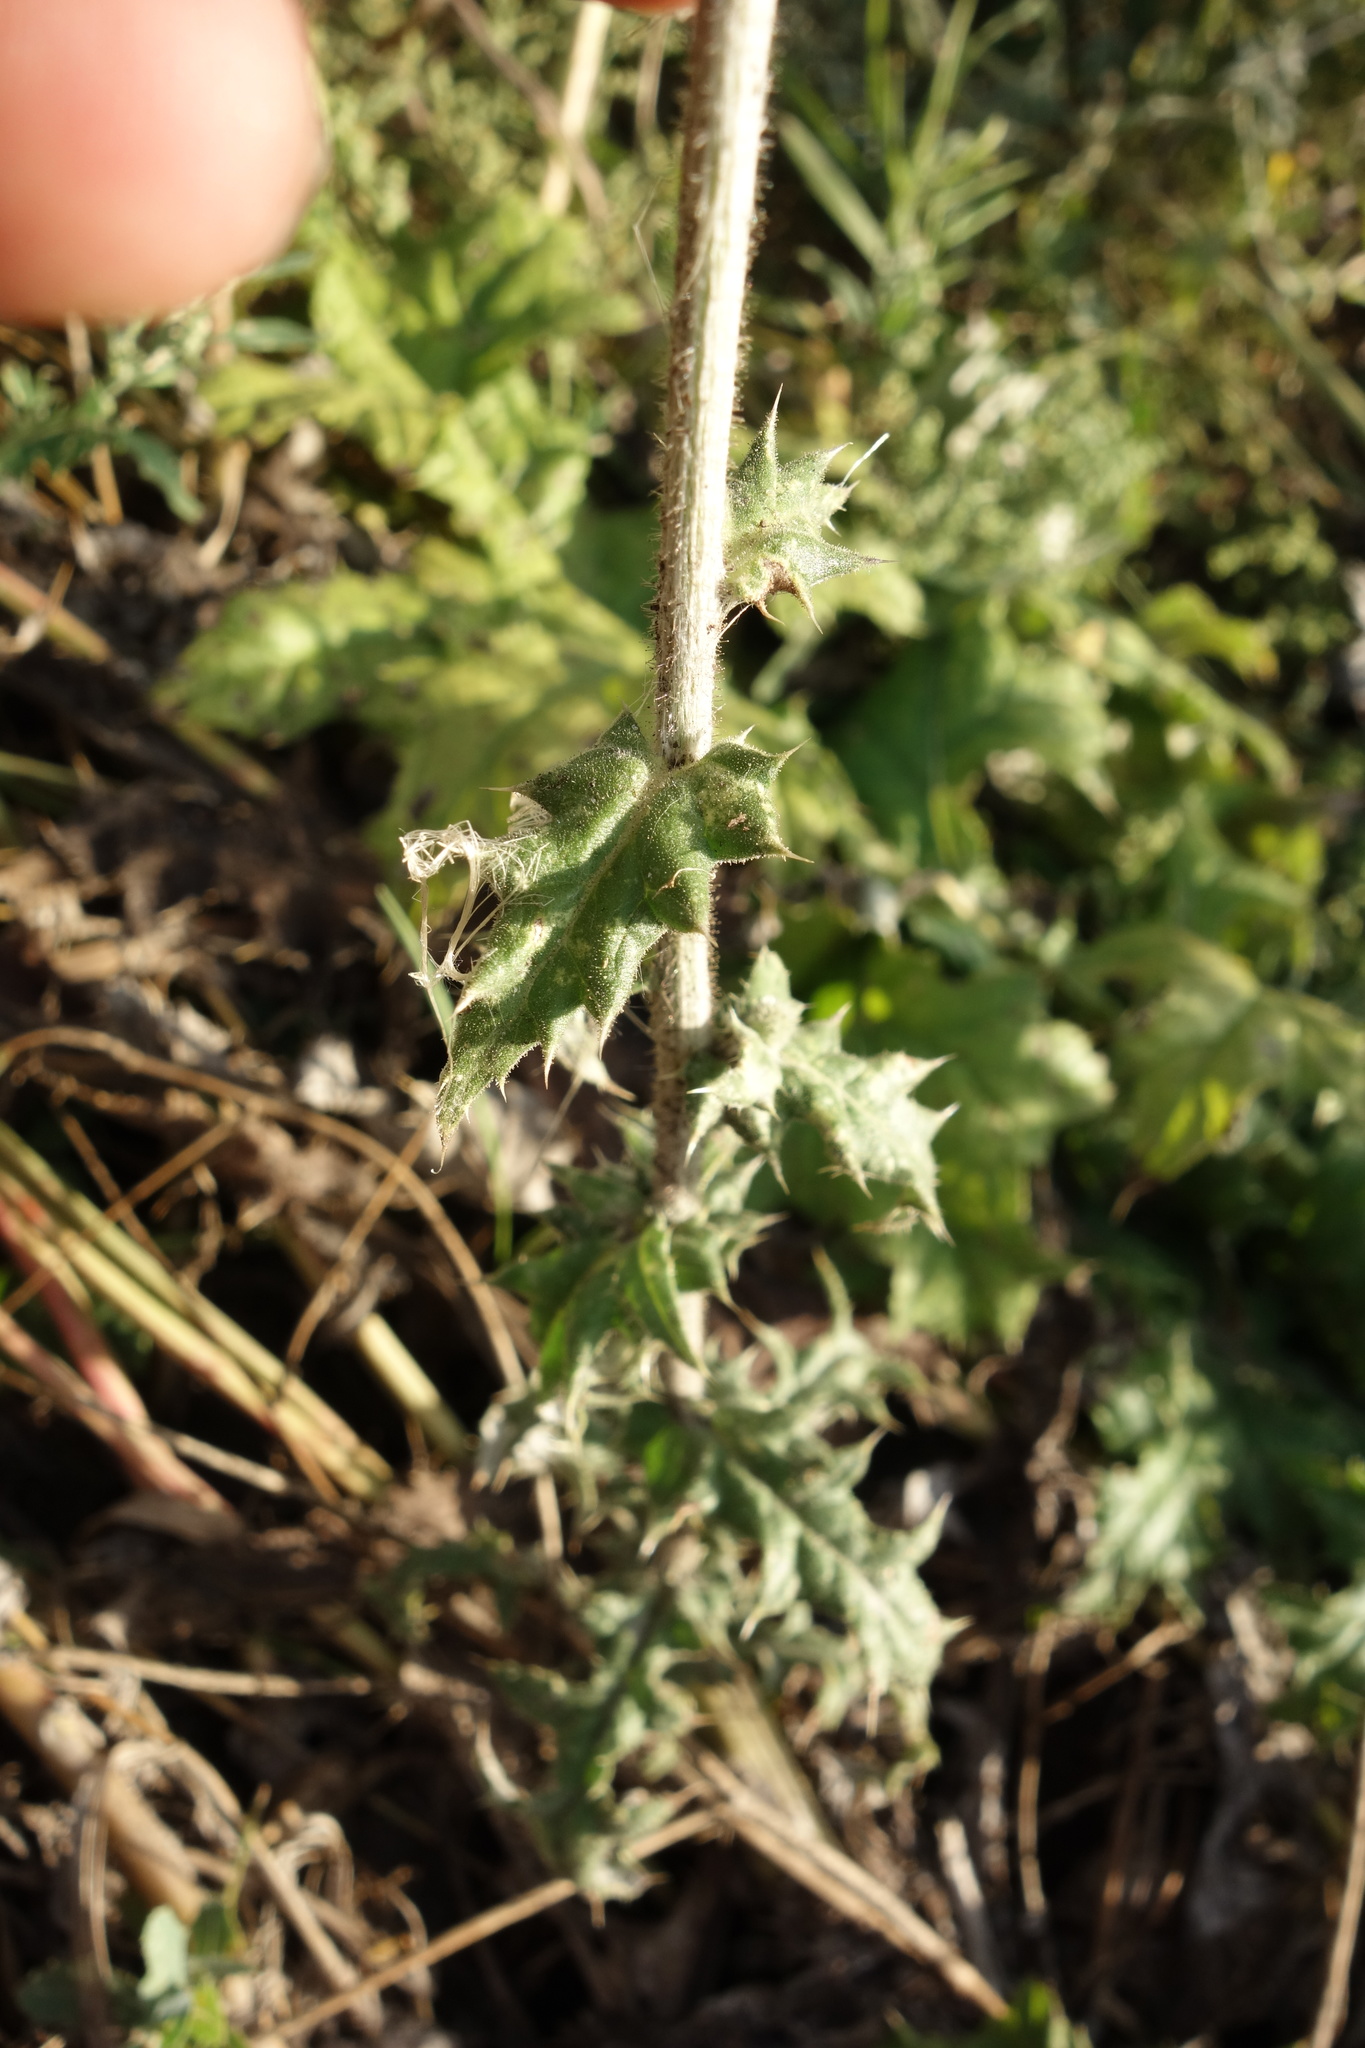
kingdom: Plantae
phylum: Tracheophyta
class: Magnoliopsida
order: Asterales
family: Asteraceae
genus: Echinops
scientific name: Echinops sphaerocephalus
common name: Glandular globe-thistle
